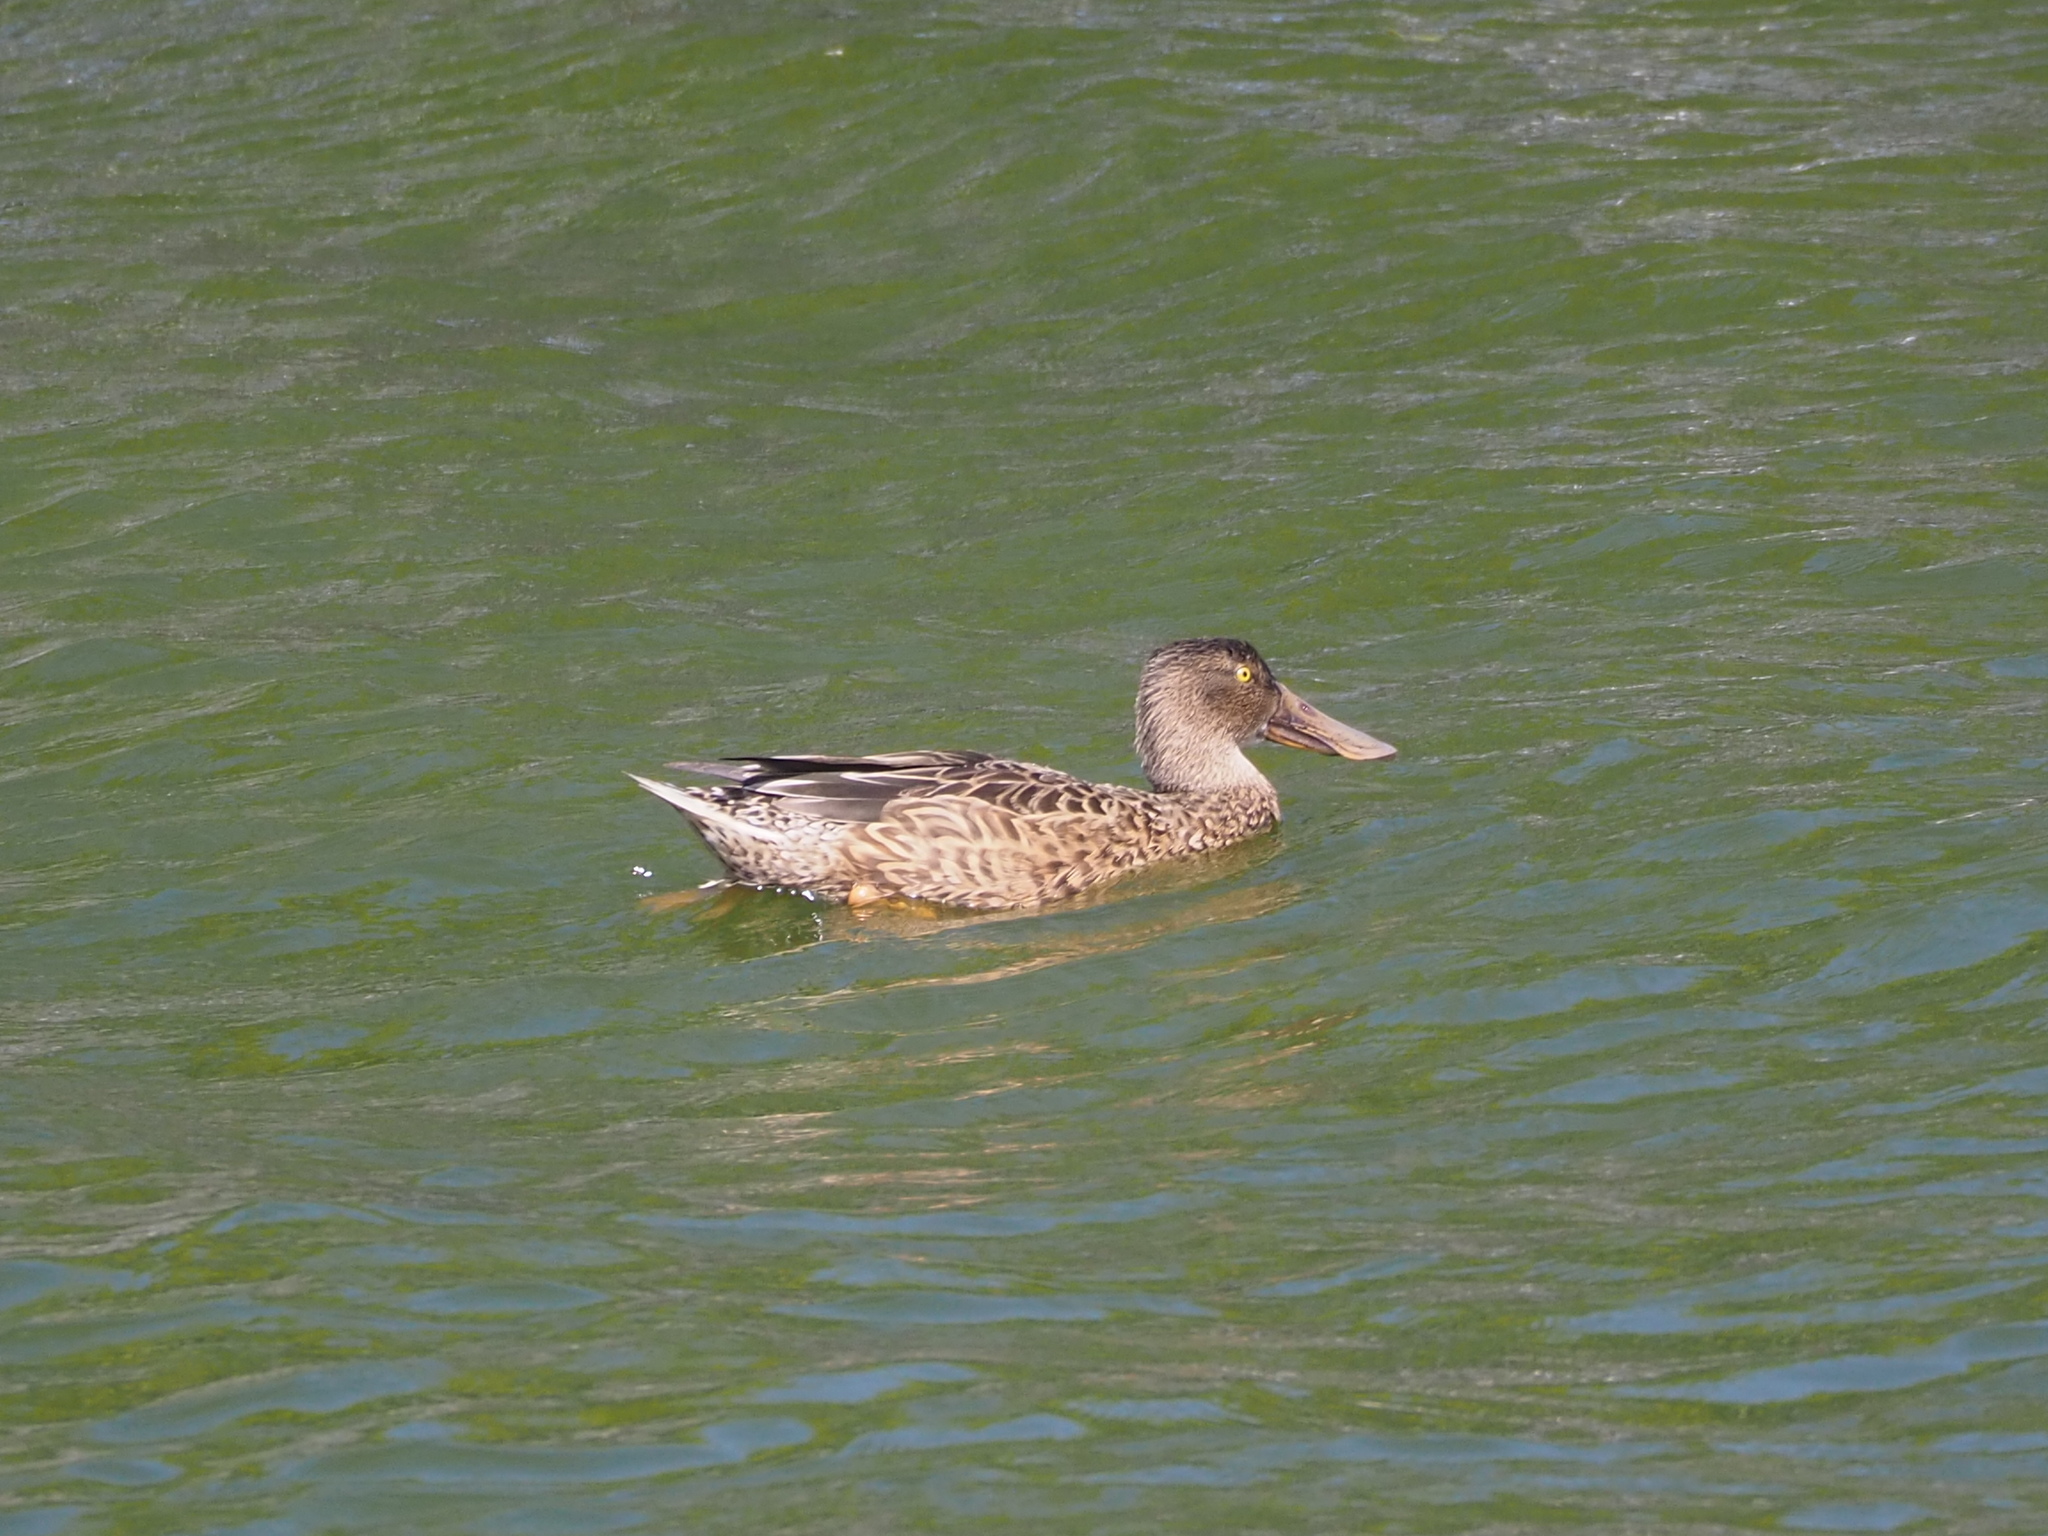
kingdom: Animalia
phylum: Chordata
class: Aves
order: Anseriformes
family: Anatidae
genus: Spatula
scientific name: Spatula clypeata
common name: Northern shoveler
